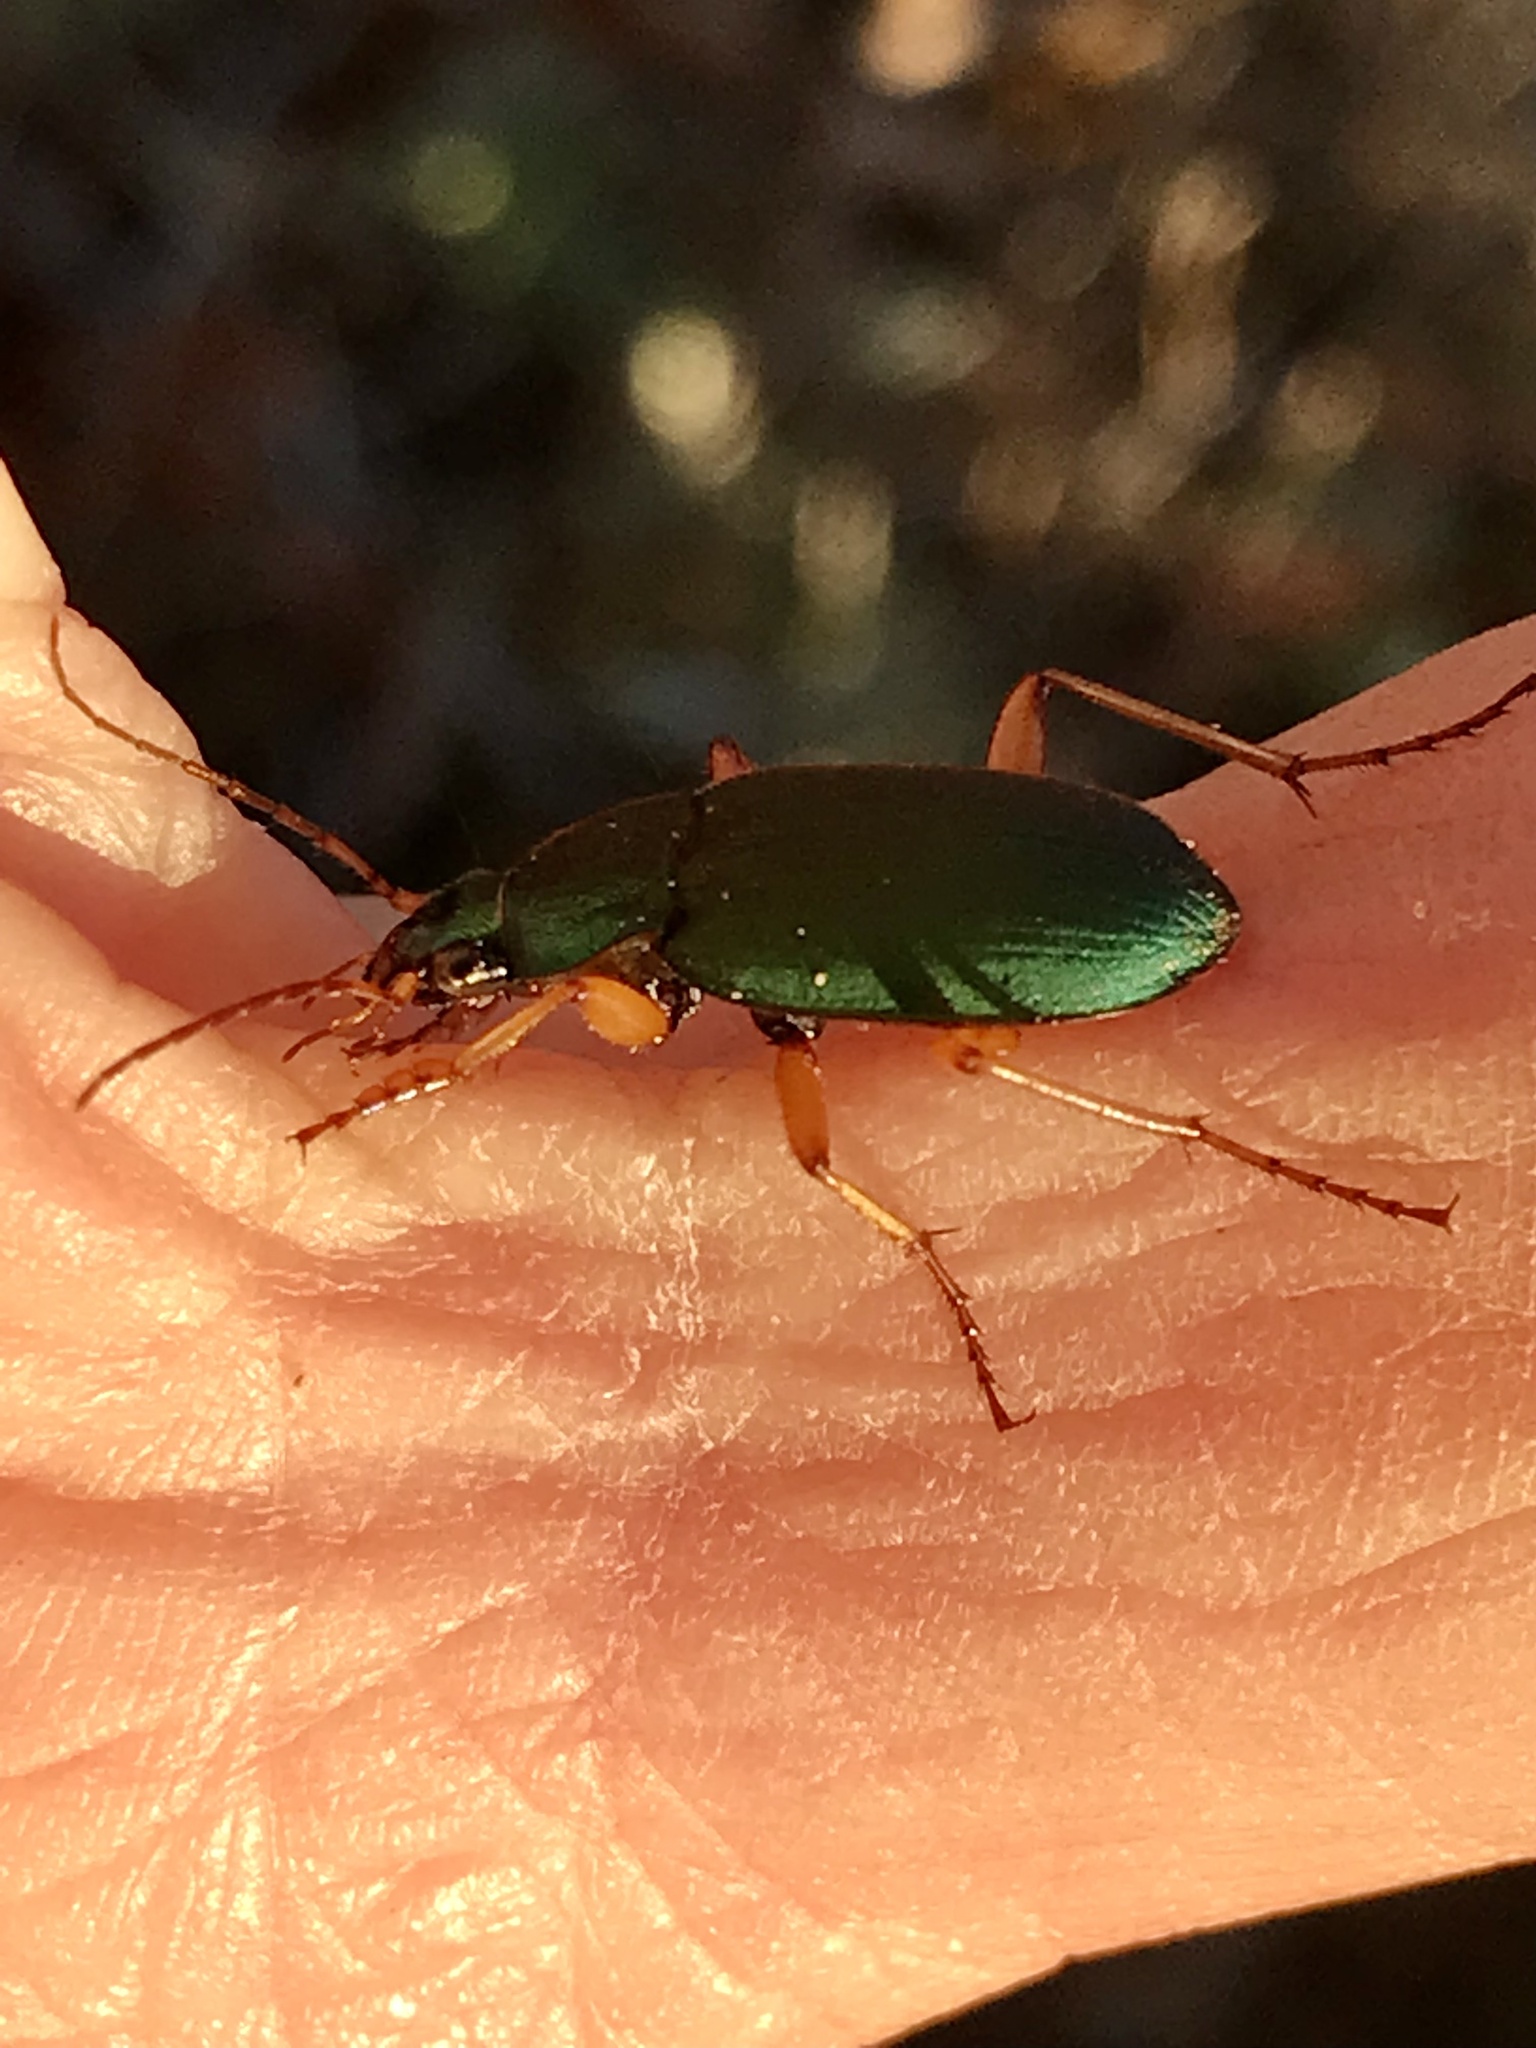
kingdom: Animalia
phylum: Arthropoda
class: Insecta
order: Coleoptera
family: Carabidae
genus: Chlaenius
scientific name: Chlaenius sericeus
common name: Green pubescent ground beetle
